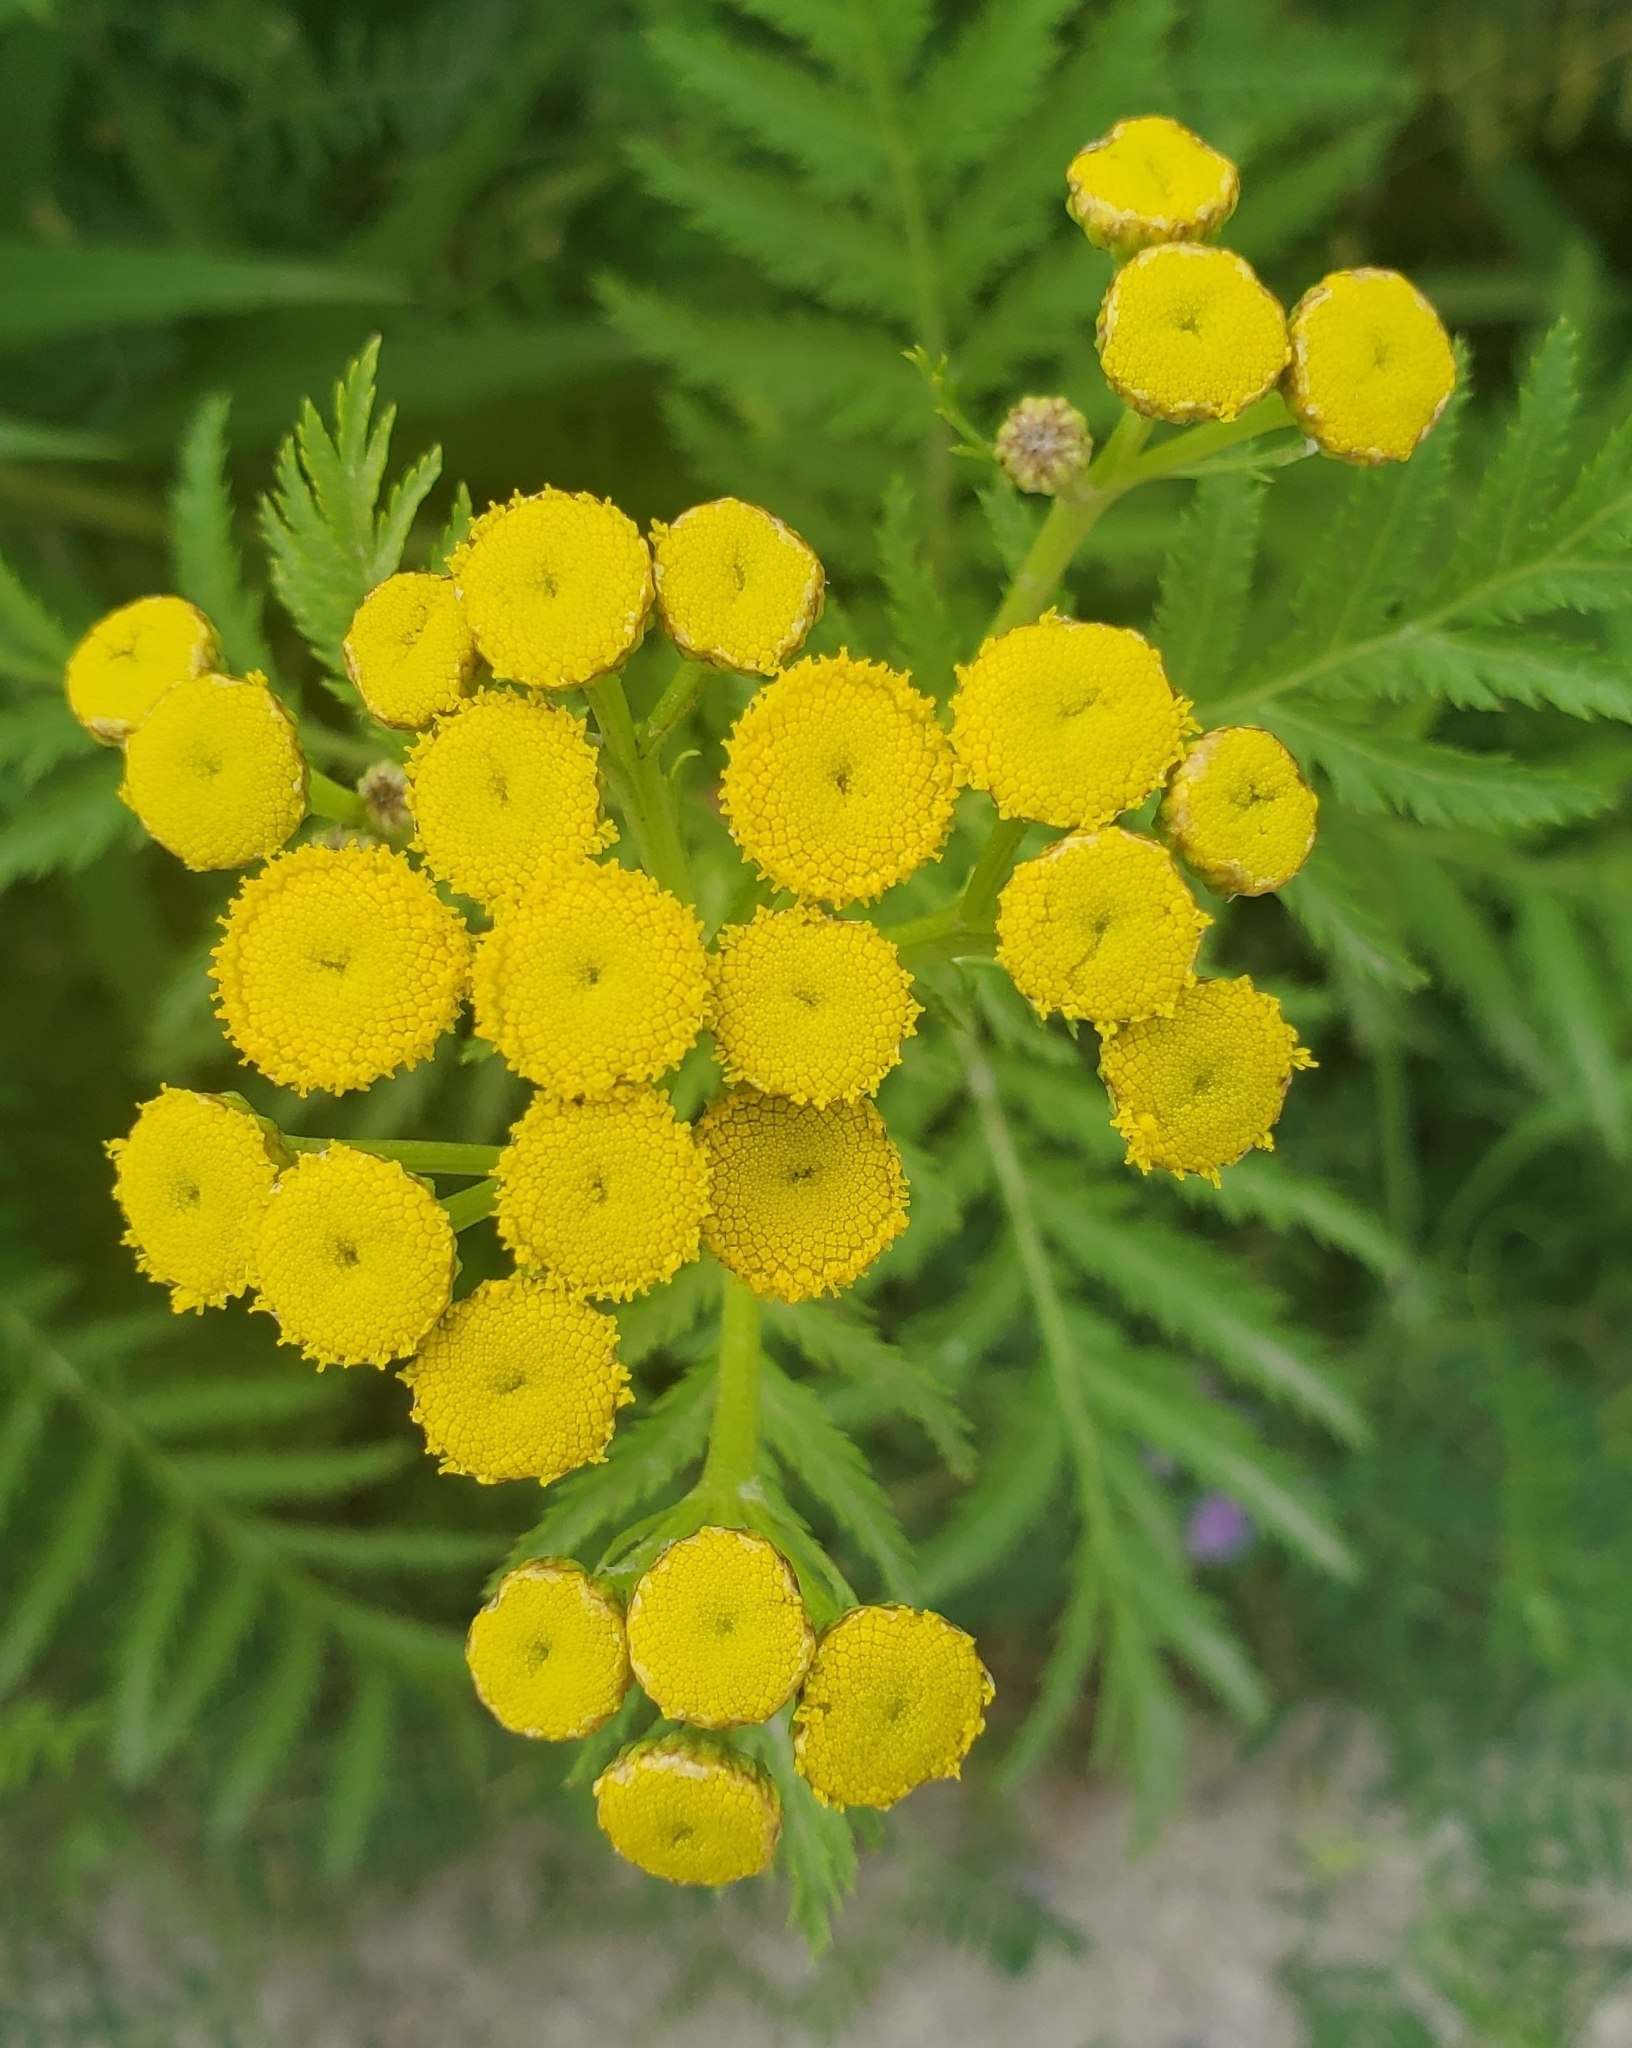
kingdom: Plantae
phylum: Tracheophyta
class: Magnoliopsida
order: Asterales
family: Asteraceae
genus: Tanacetum
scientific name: Tanacetum vulgare
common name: Common tansy
